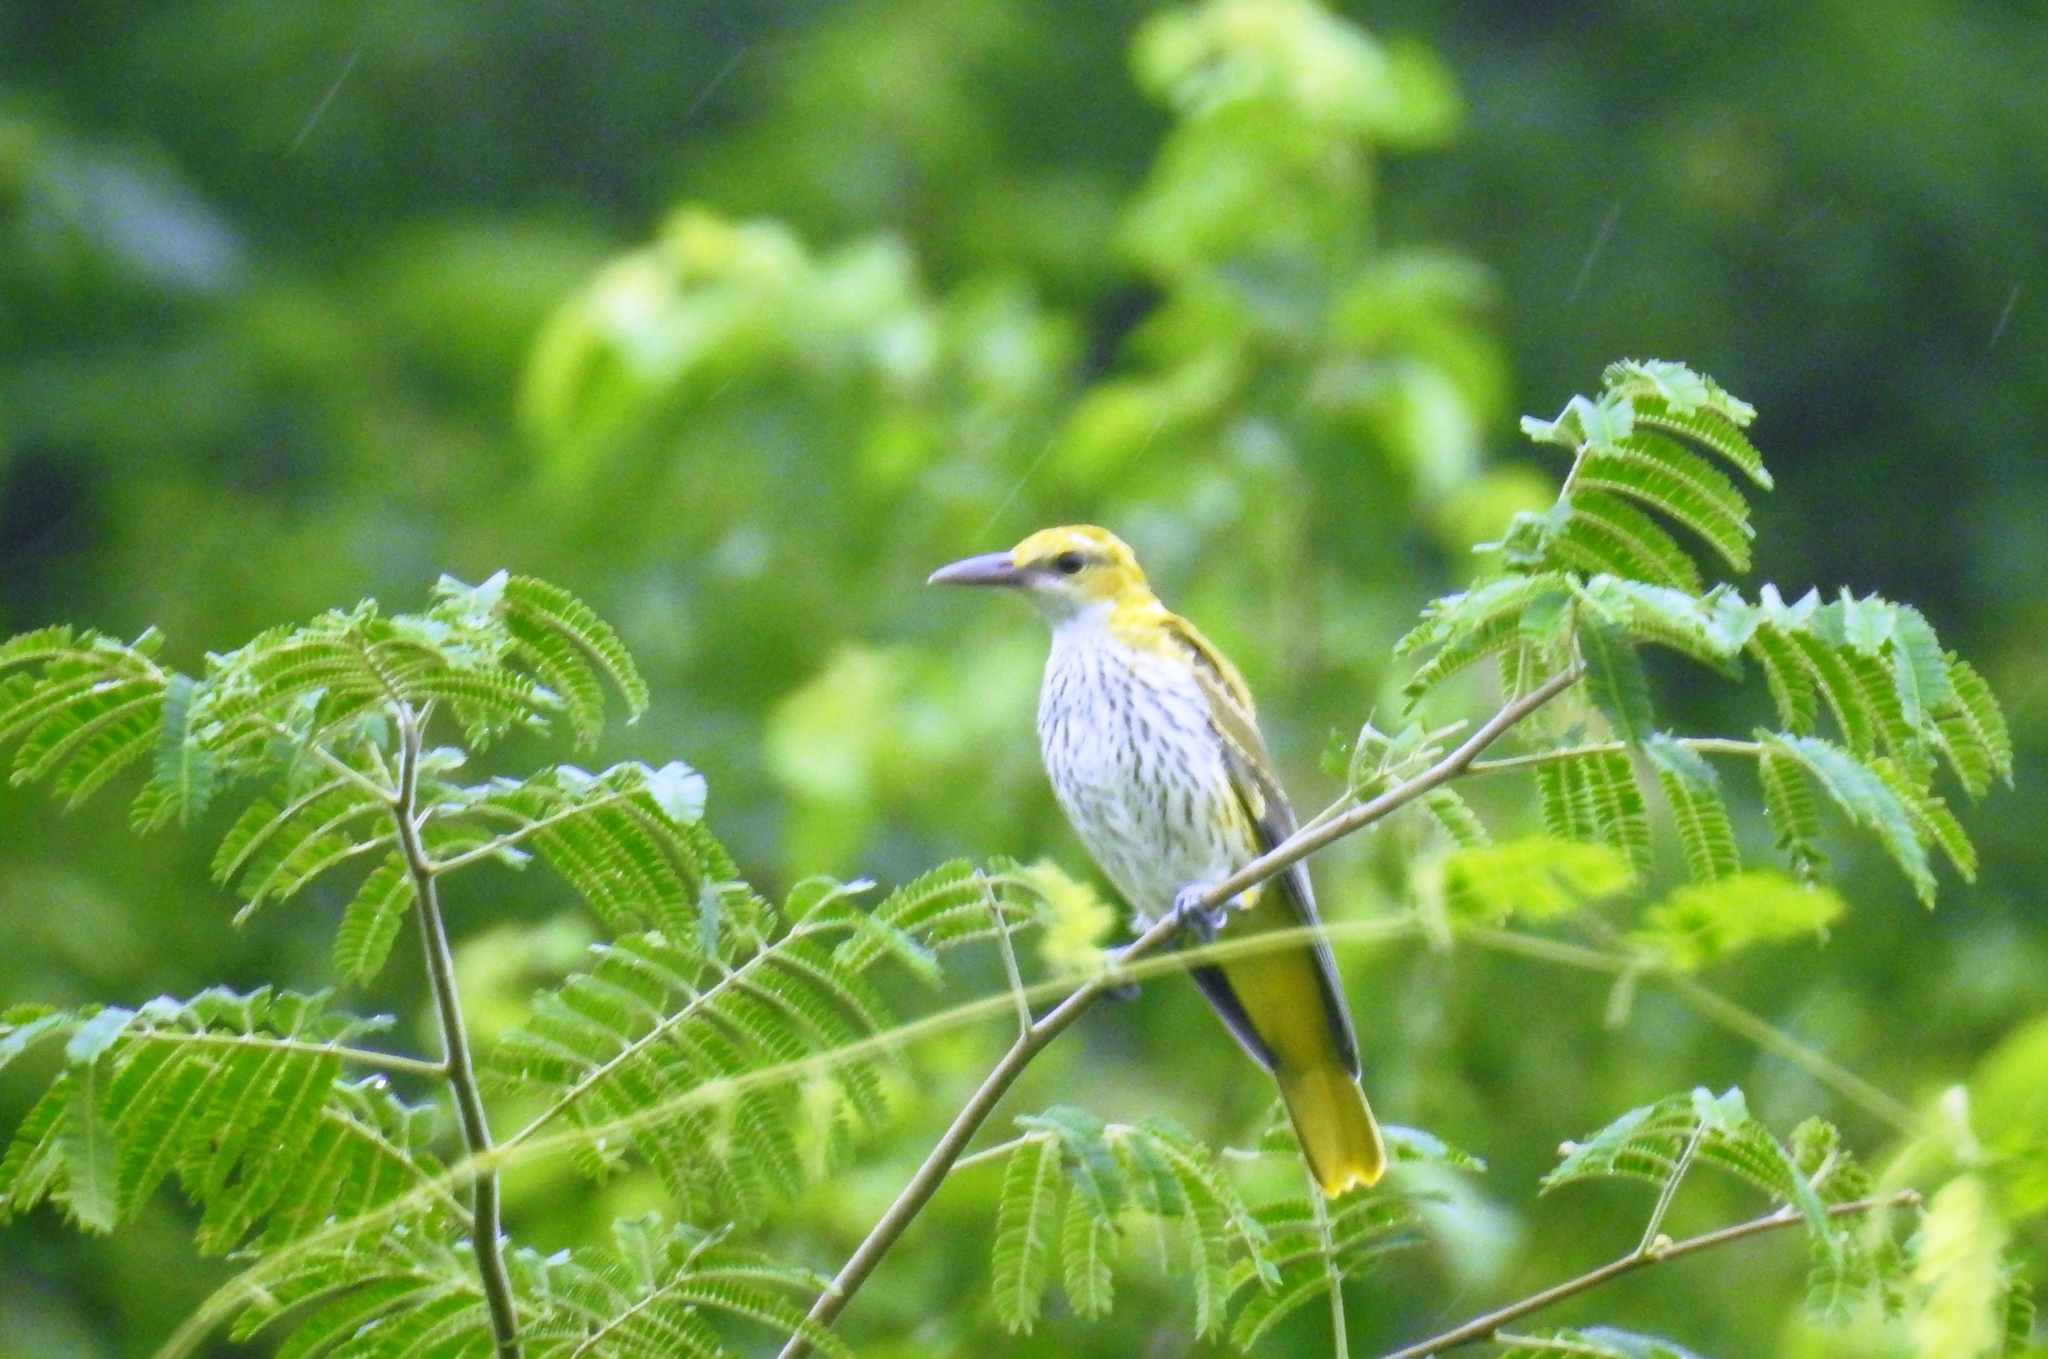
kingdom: Animalia
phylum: Chordata
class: Aves
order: Passeriformes
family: Oriolidae
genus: Oriolus
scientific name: Oriolus kundoo
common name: Indian golden oriole
